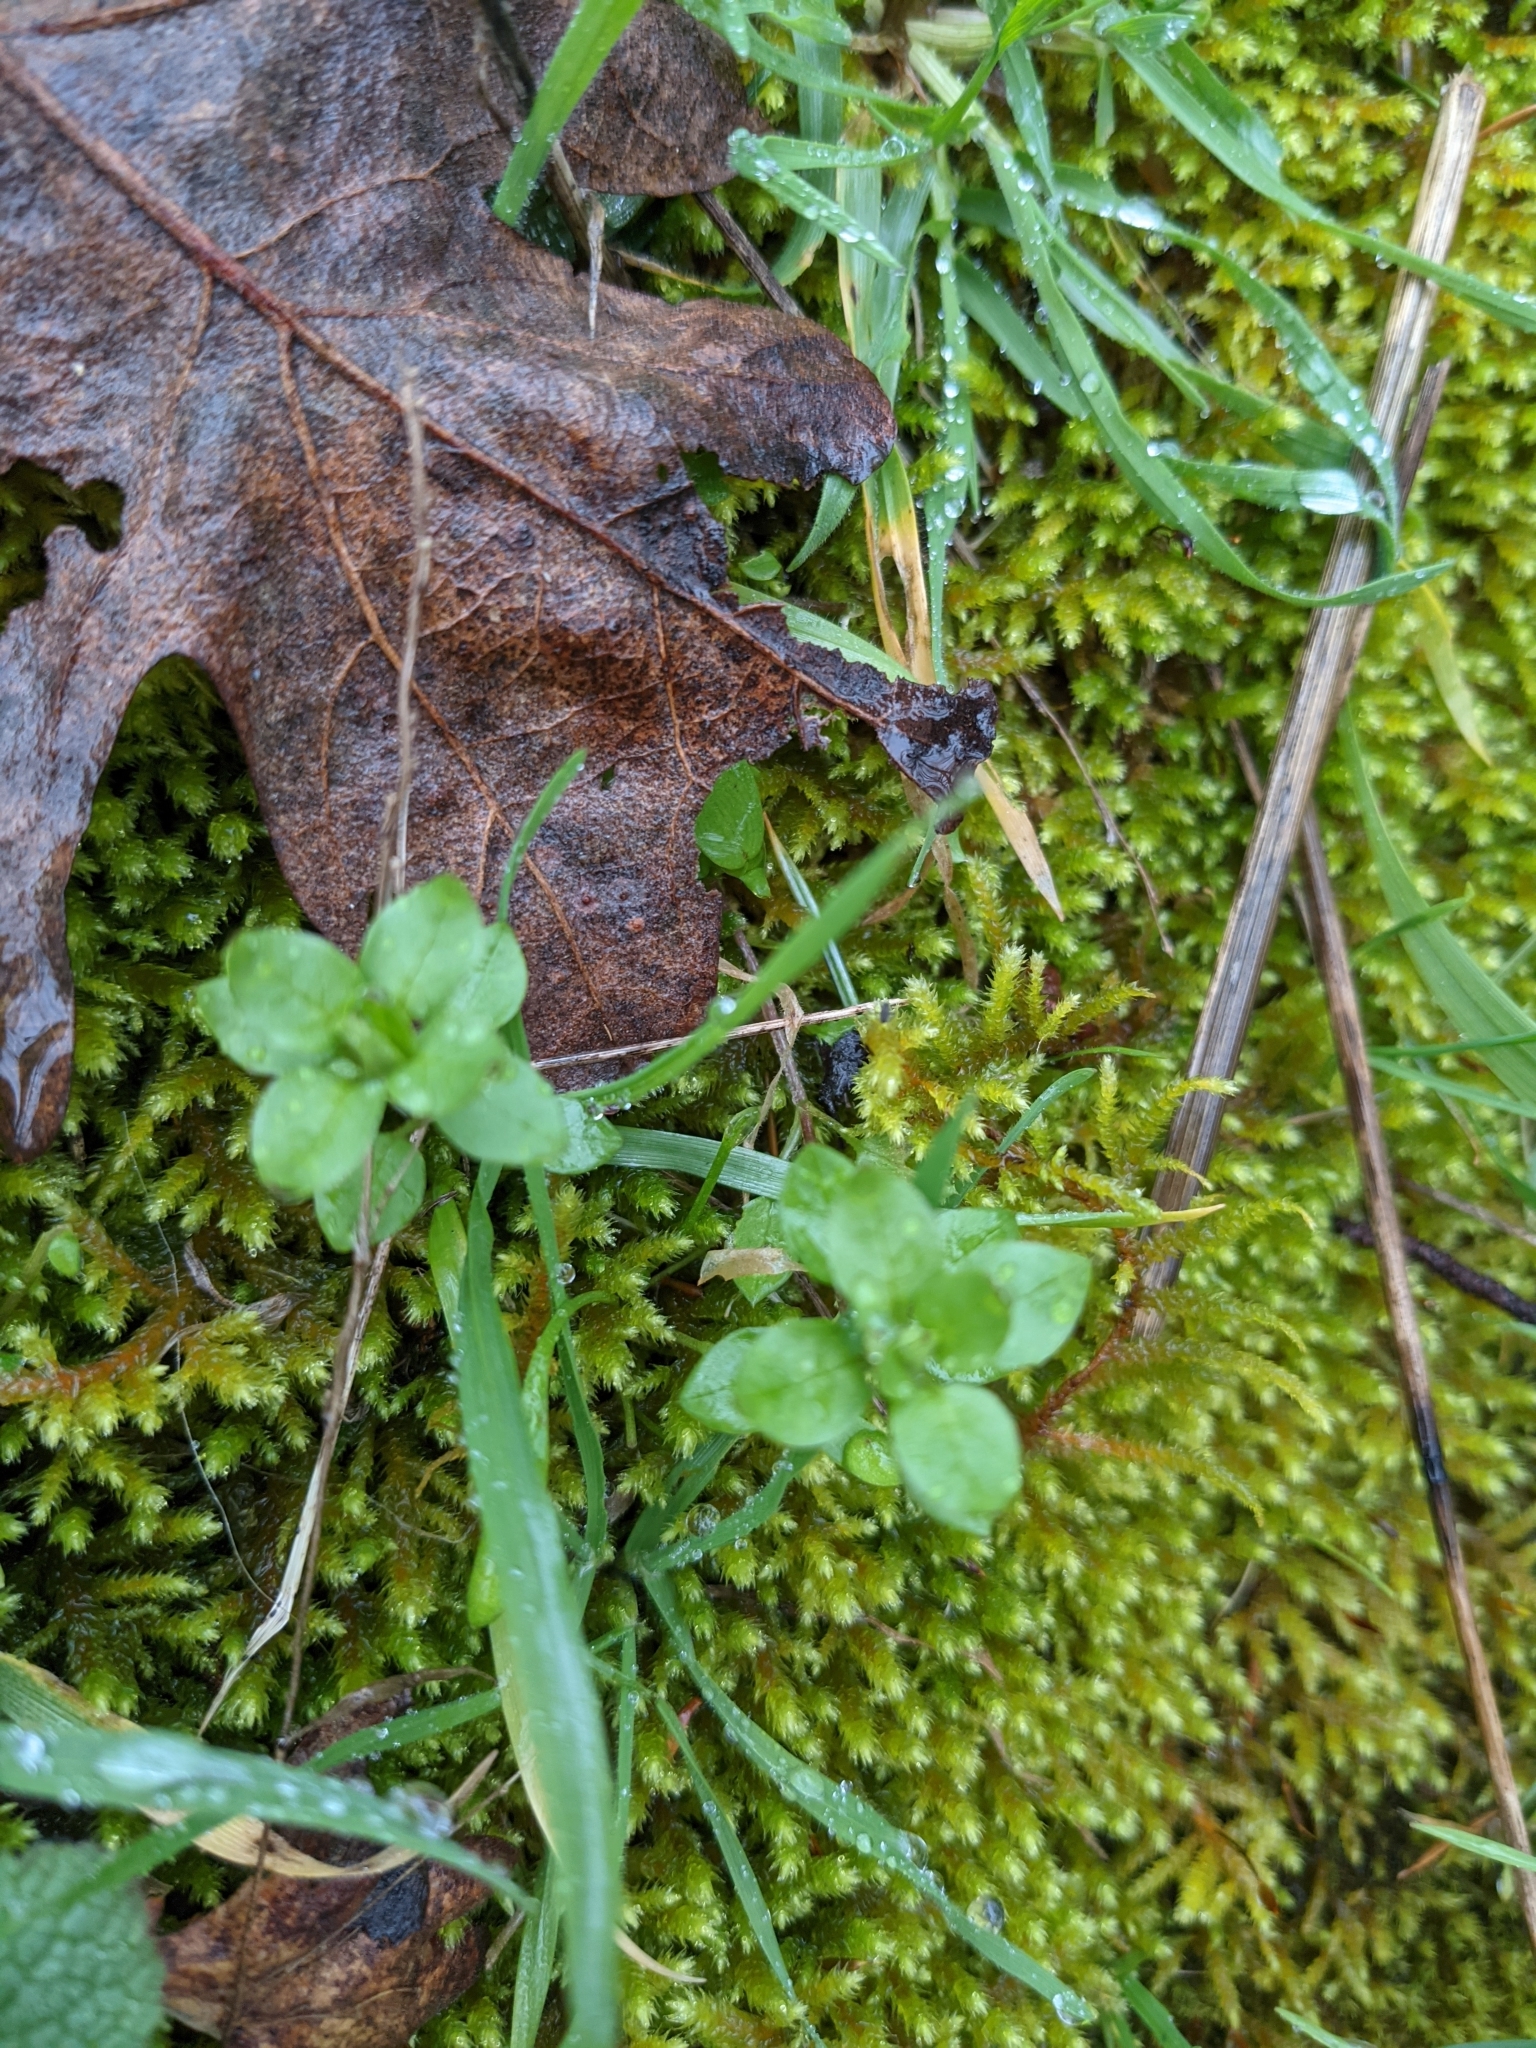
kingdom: Plantae
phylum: Tracheophyta
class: Magnoliopsida
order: Caryophyllales
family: Caryophyllaceae
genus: Stellaria
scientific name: Stellaria media
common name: Common chickweed
